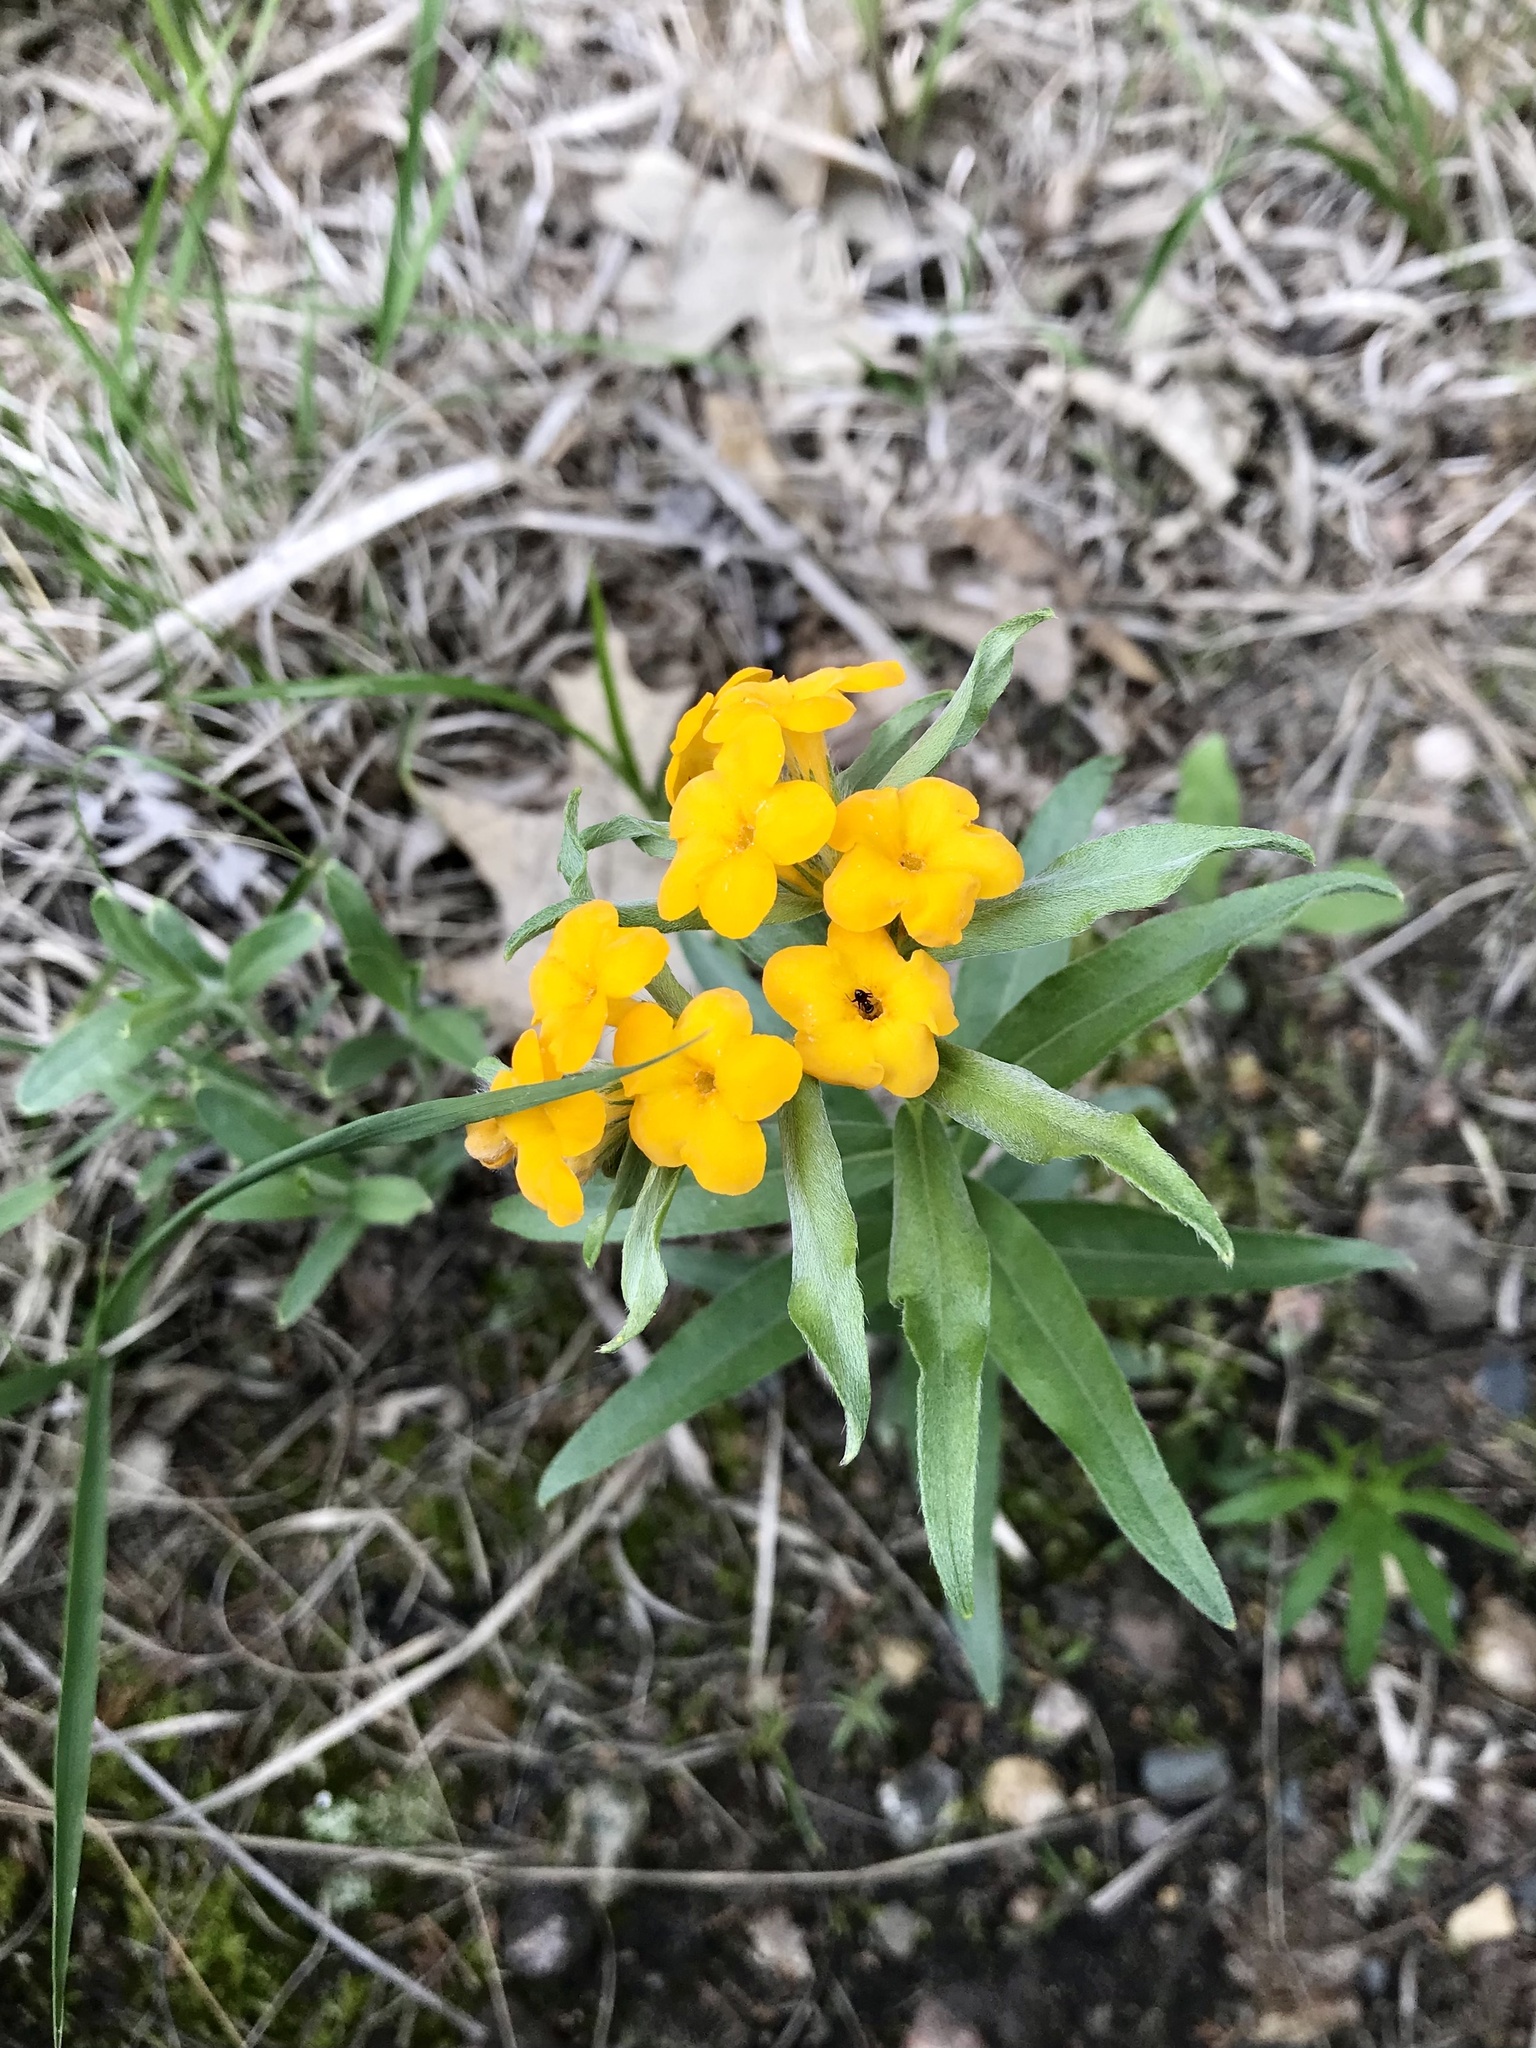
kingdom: Plantae
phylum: Tracheophyta
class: Magnoliopsida
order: Boraginales
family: Boraginaceae
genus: Lithospermum
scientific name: Lithospermum canescens
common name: Hoary puccoon
